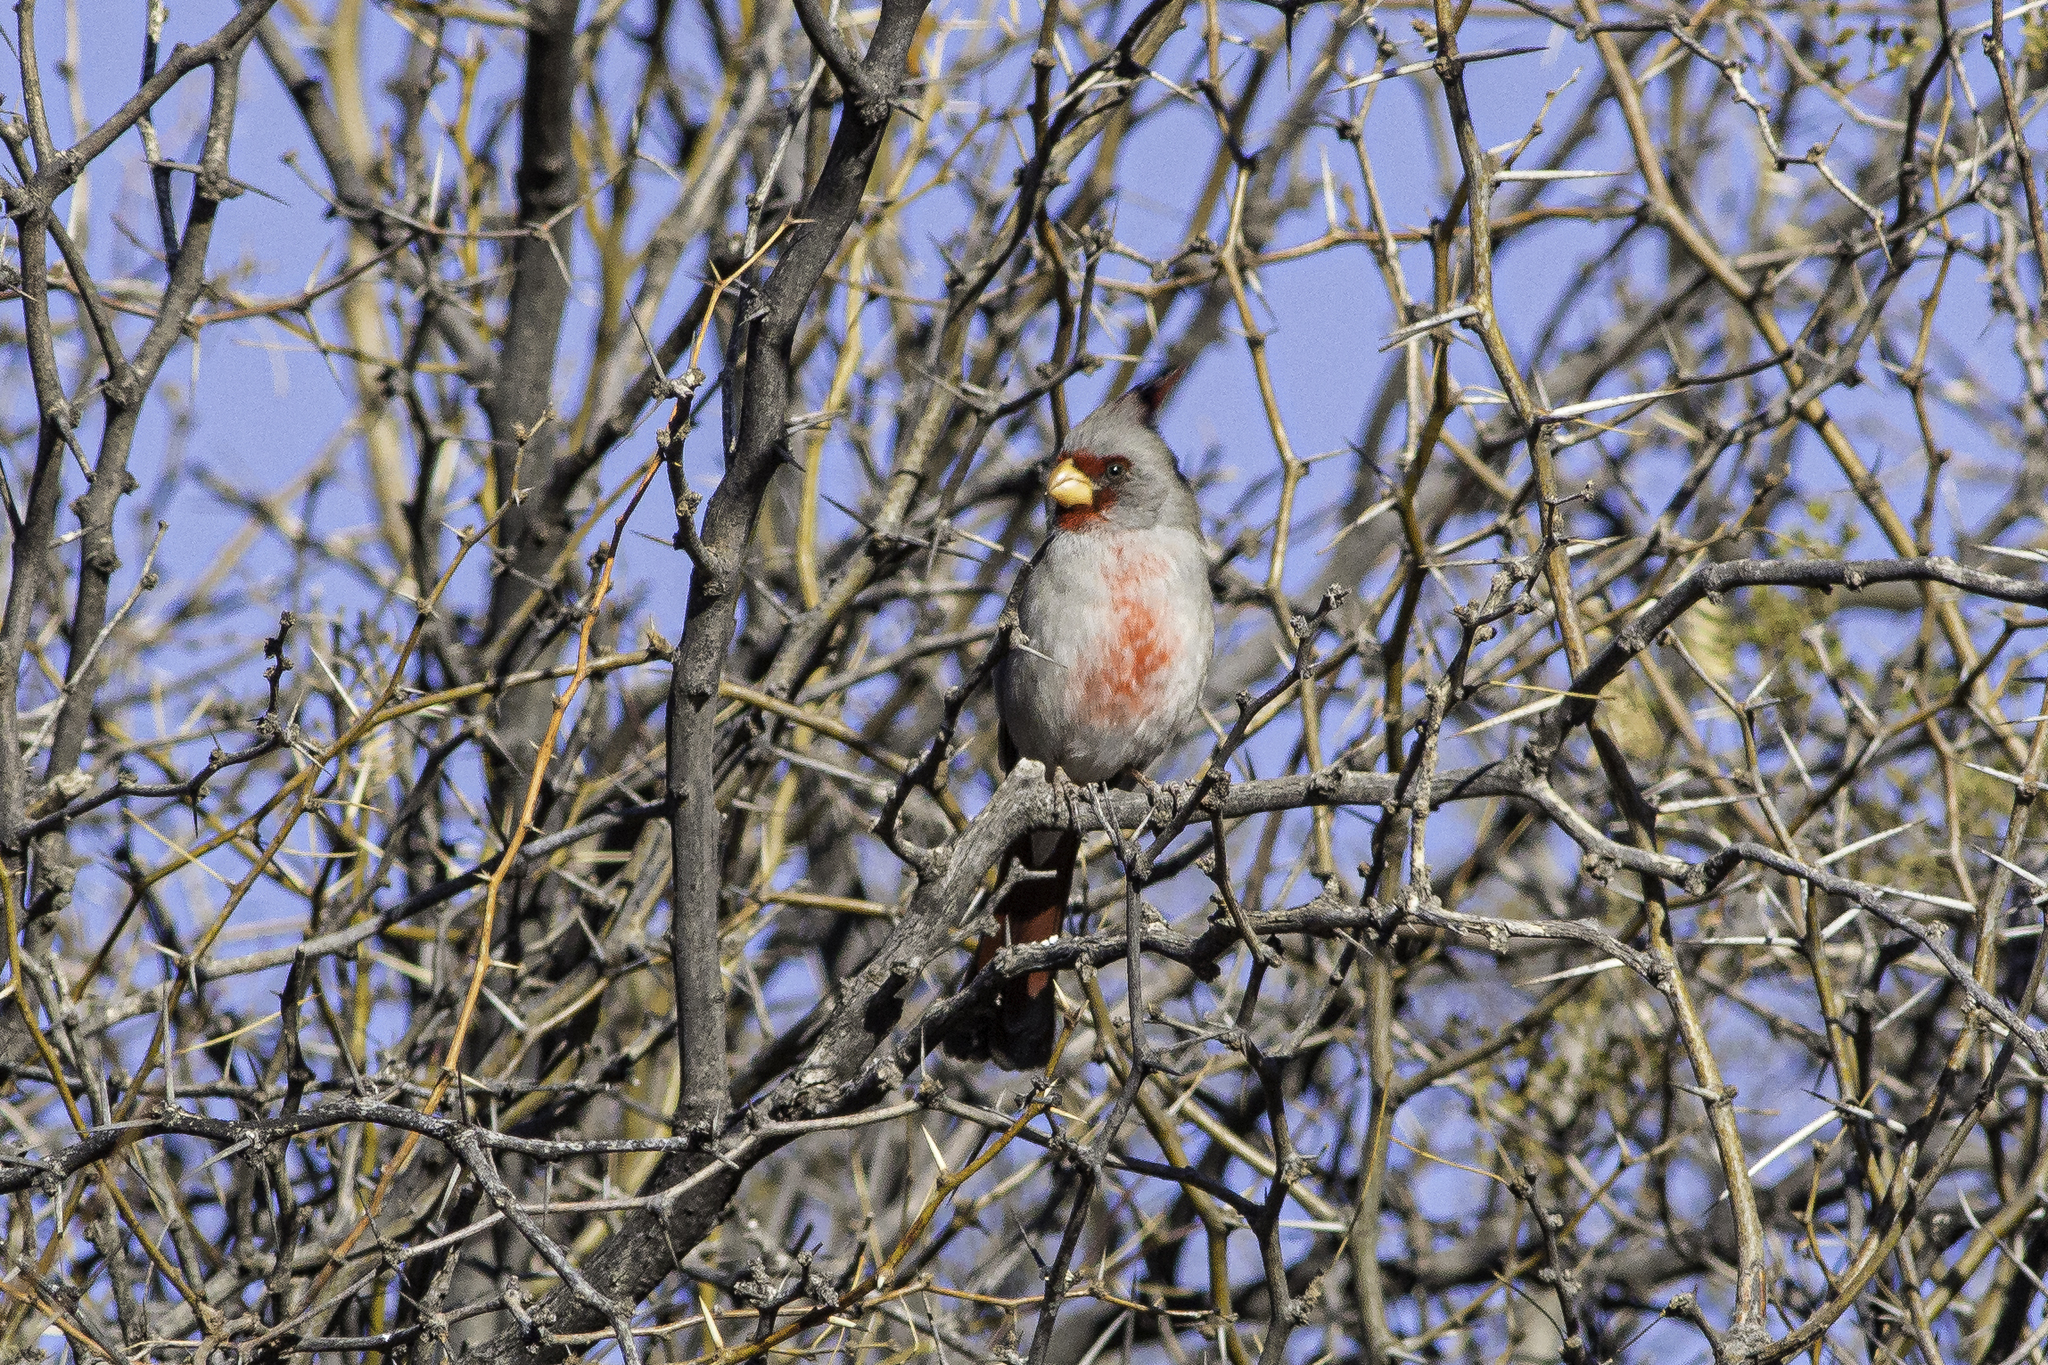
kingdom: Animalia
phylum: Chordata
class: Aves
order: Passeriformes
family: Cardinalidae
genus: Cardinalis
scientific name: Cardinalis sinuatus
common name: Pyrrhuloxia
